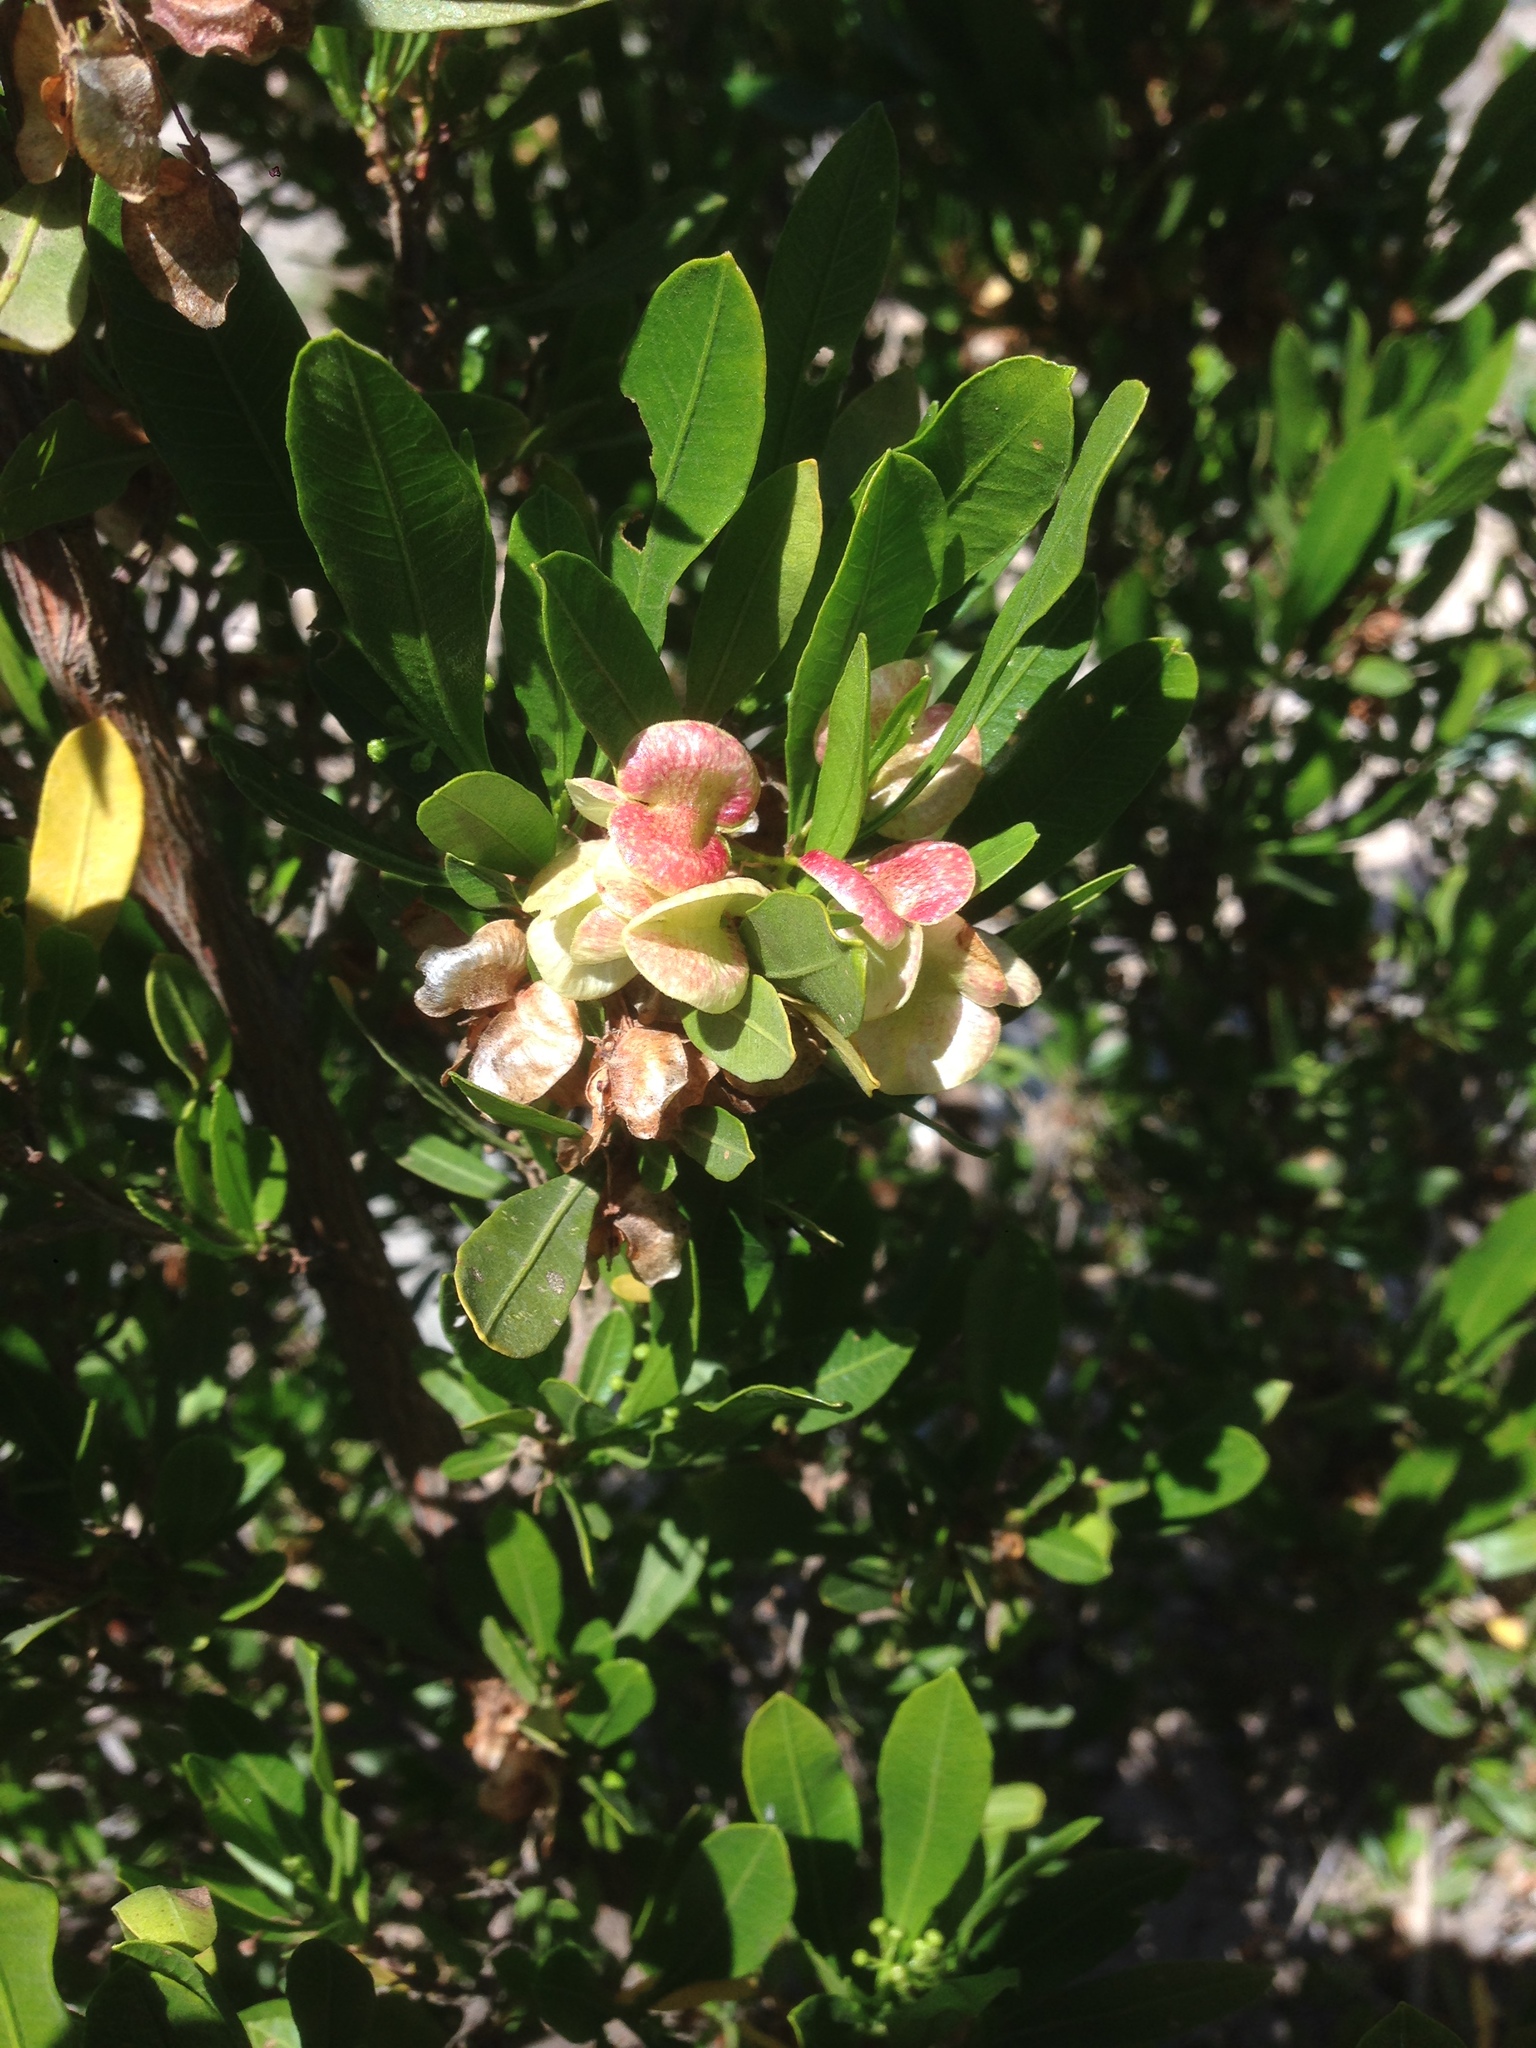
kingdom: Plantae
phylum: Tracheophyta
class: Magnoliopsida
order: Sapindales
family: Sapindaceae
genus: Dodonaea
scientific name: Dodonaea viscosa
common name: Hopbush
